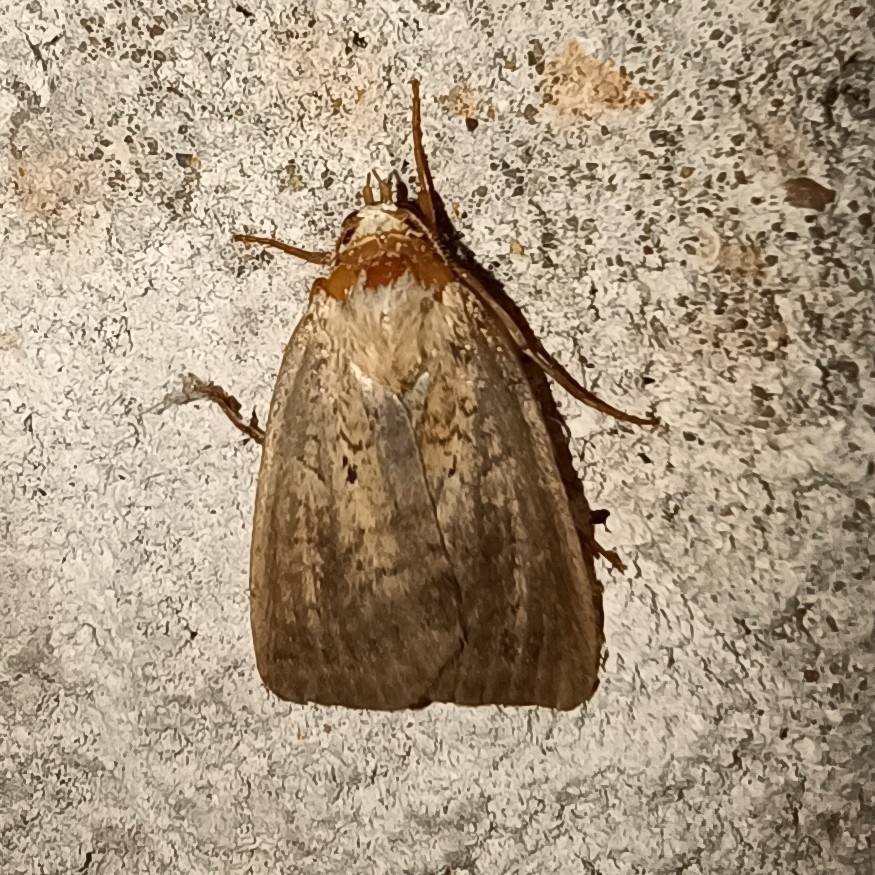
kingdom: Animalia
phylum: Arthropoda
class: Insecta
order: Lepidoptera
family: Noctuidae
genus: Diarsia
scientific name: Diarsia dahlii
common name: Barred chestnut
